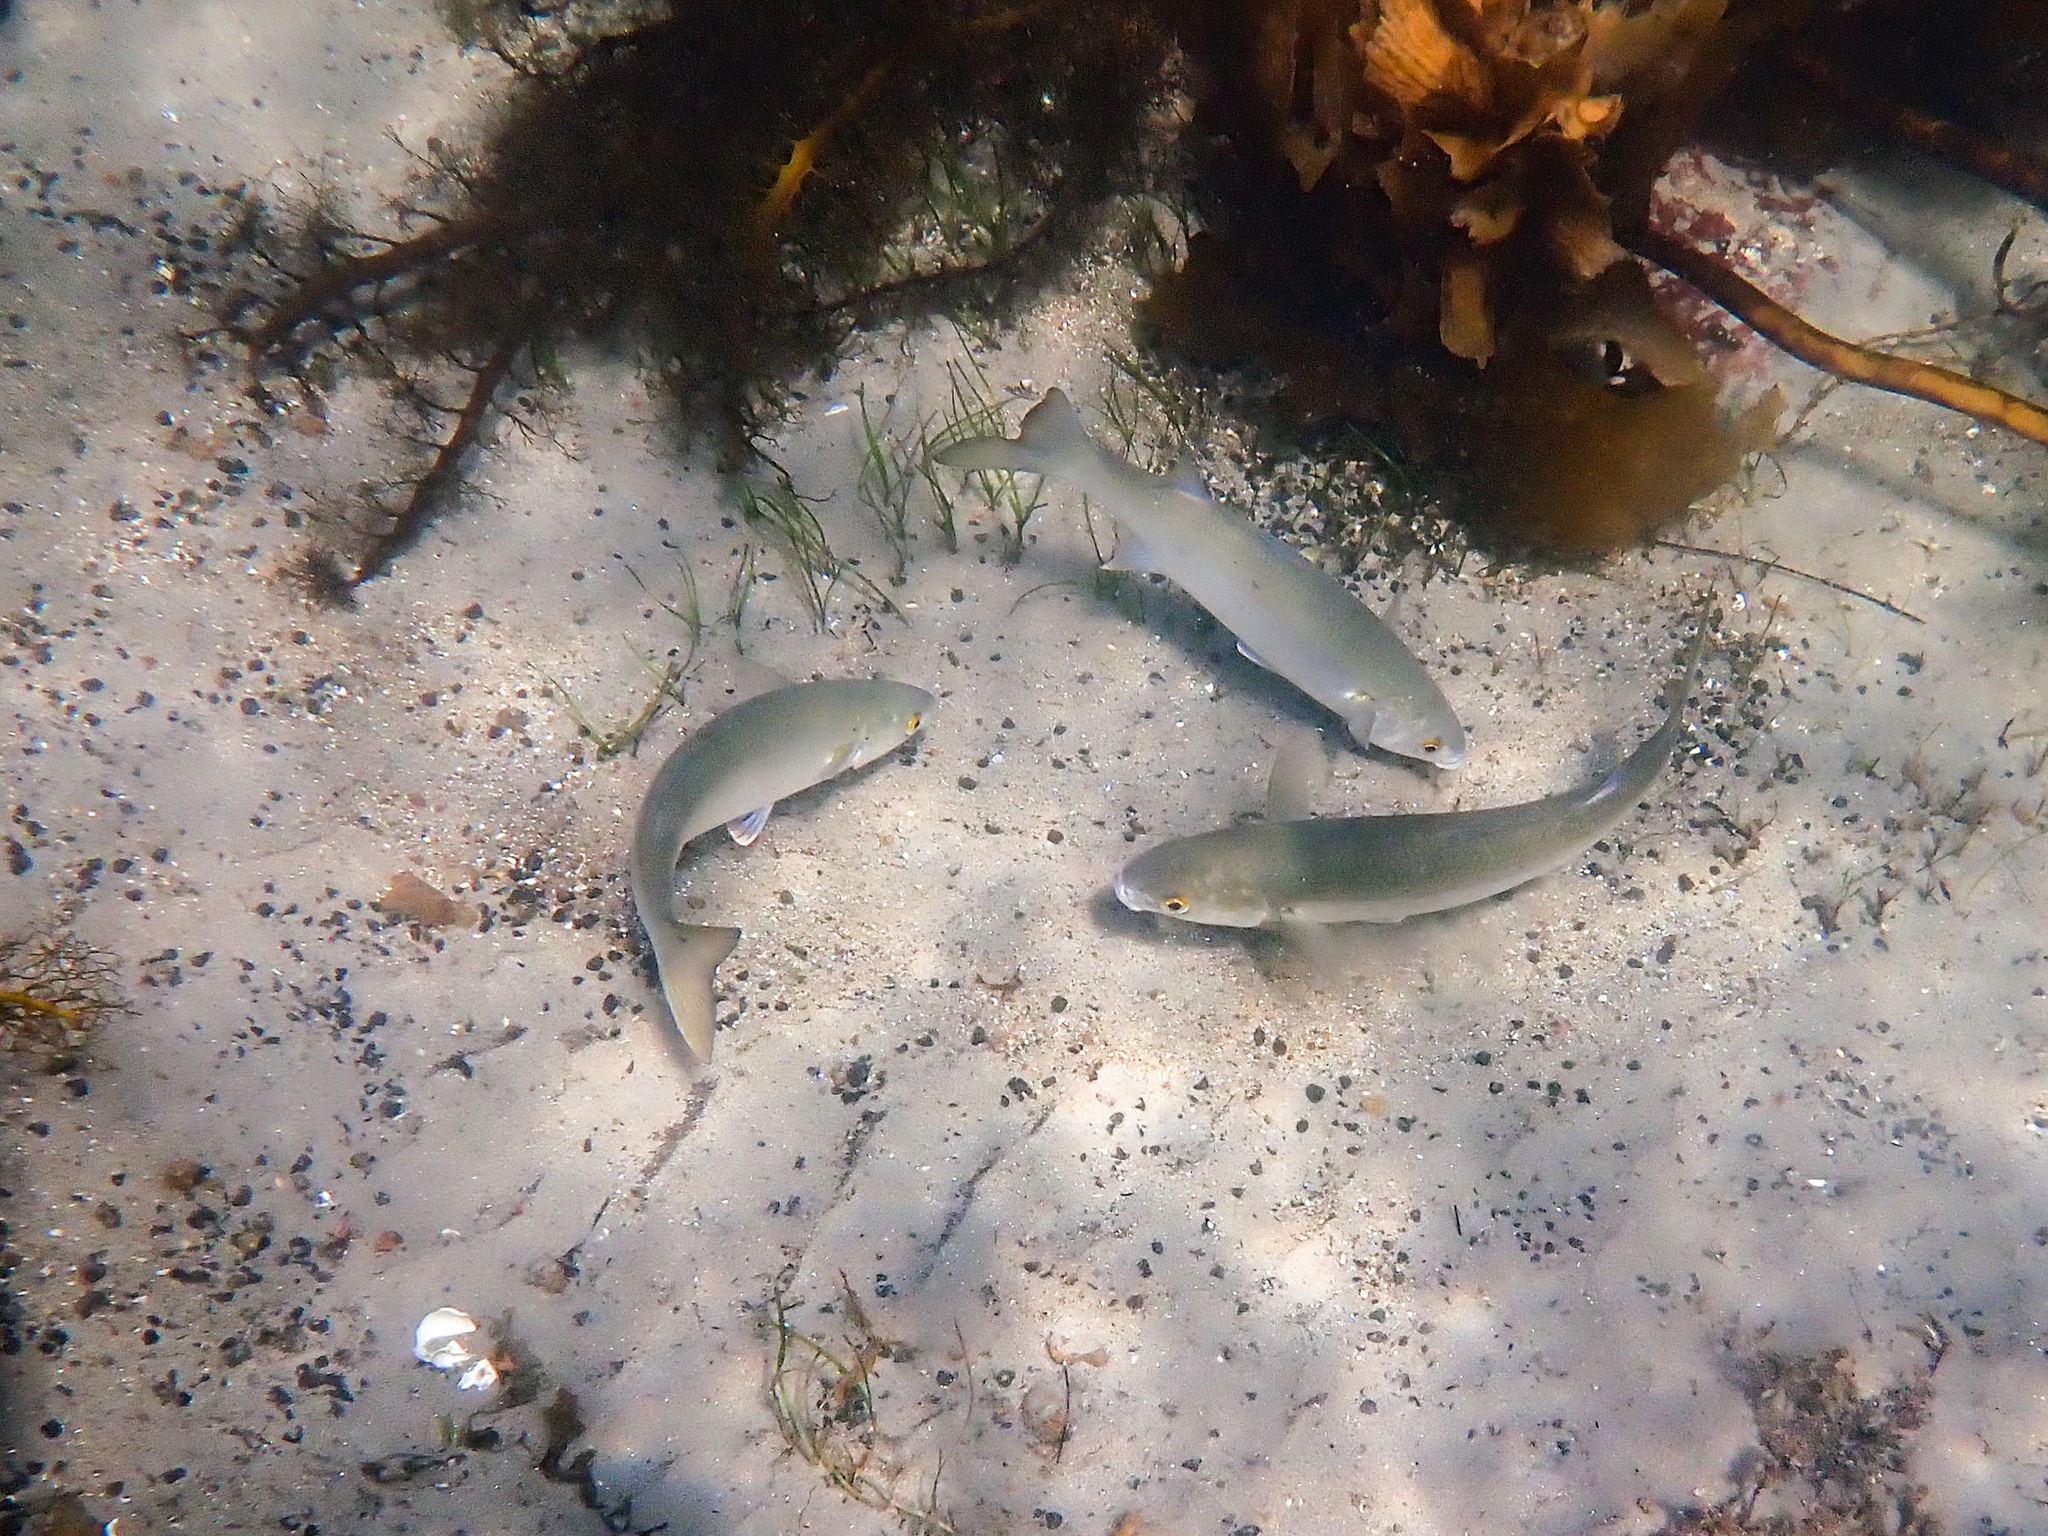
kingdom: Animalia
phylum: Chordata
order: Mugiliformes
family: Mugilidae
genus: Aldrichetta
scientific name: Aldrichetta forsteri
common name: Yellow-eye mullet
